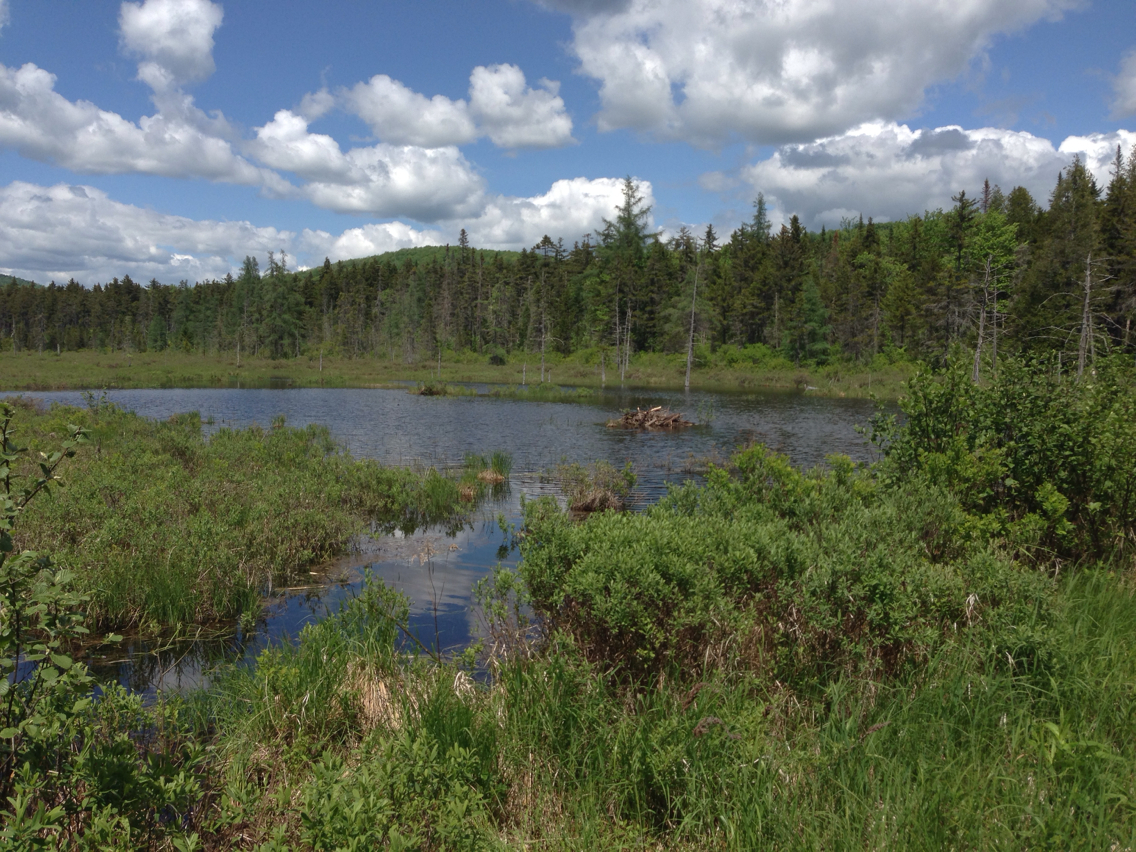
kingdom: Animalia
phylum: Chordata
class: Mammalia
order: Rodentia
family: Castoridae
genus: Castor
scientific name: Castor canadensis
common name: American beaver
